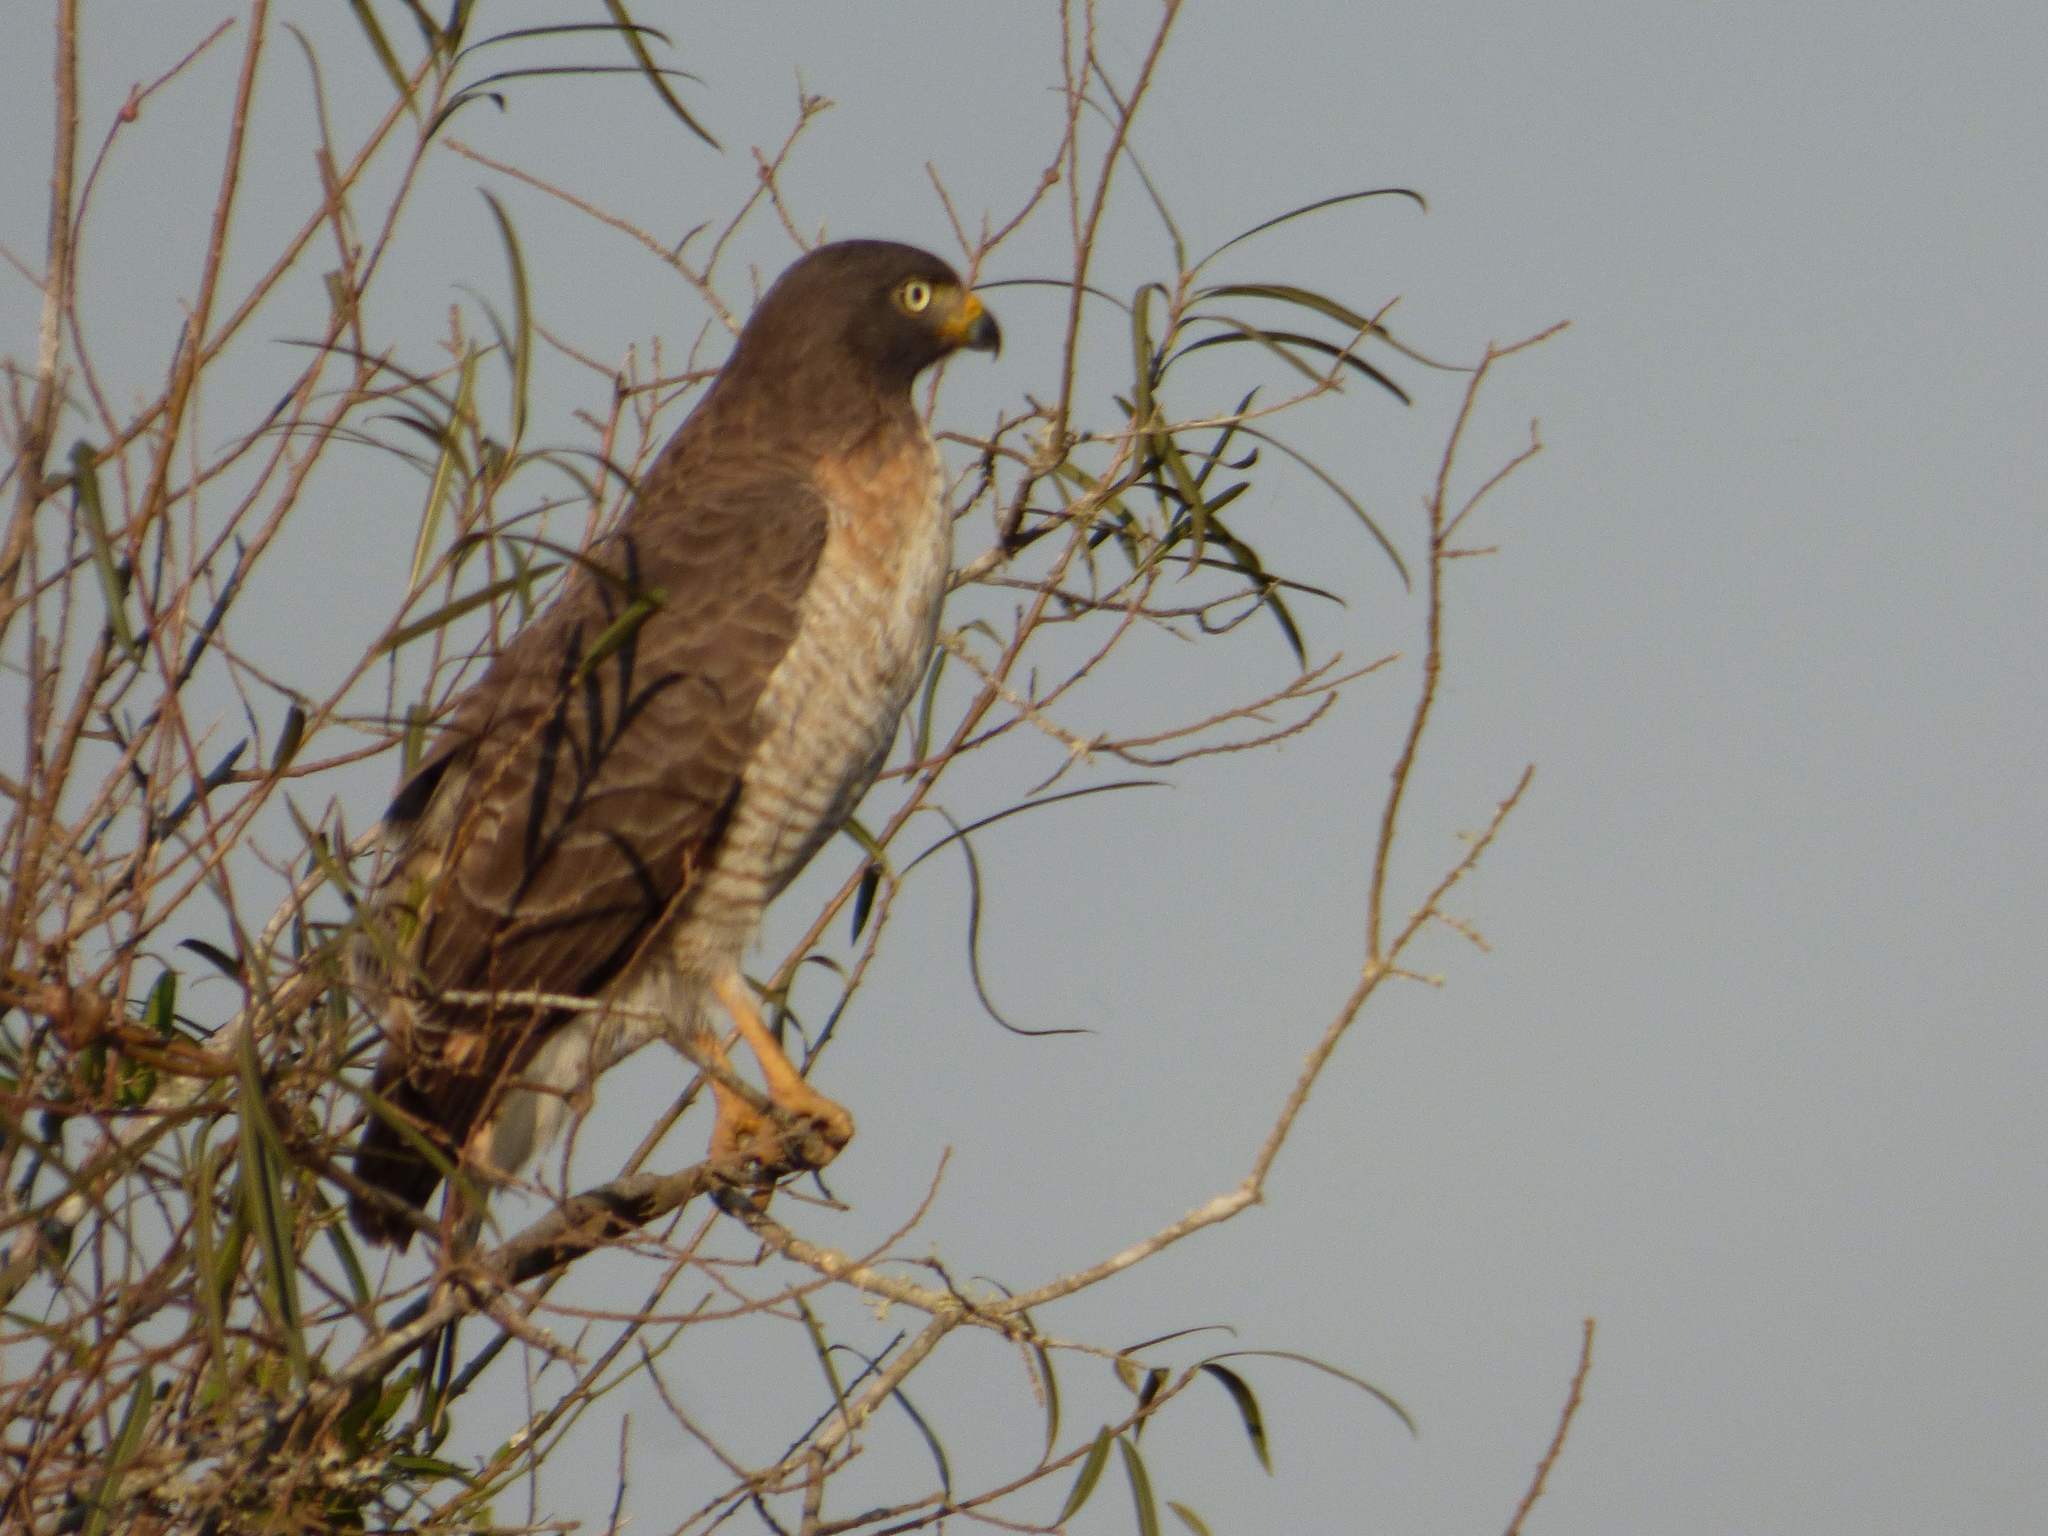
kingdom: Animalia
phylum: Chordata
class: Aves
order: Accipitriformes
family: Accipitridae
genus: Rupornis
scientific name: Rupornis magnirostris
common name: Roadside hawk
